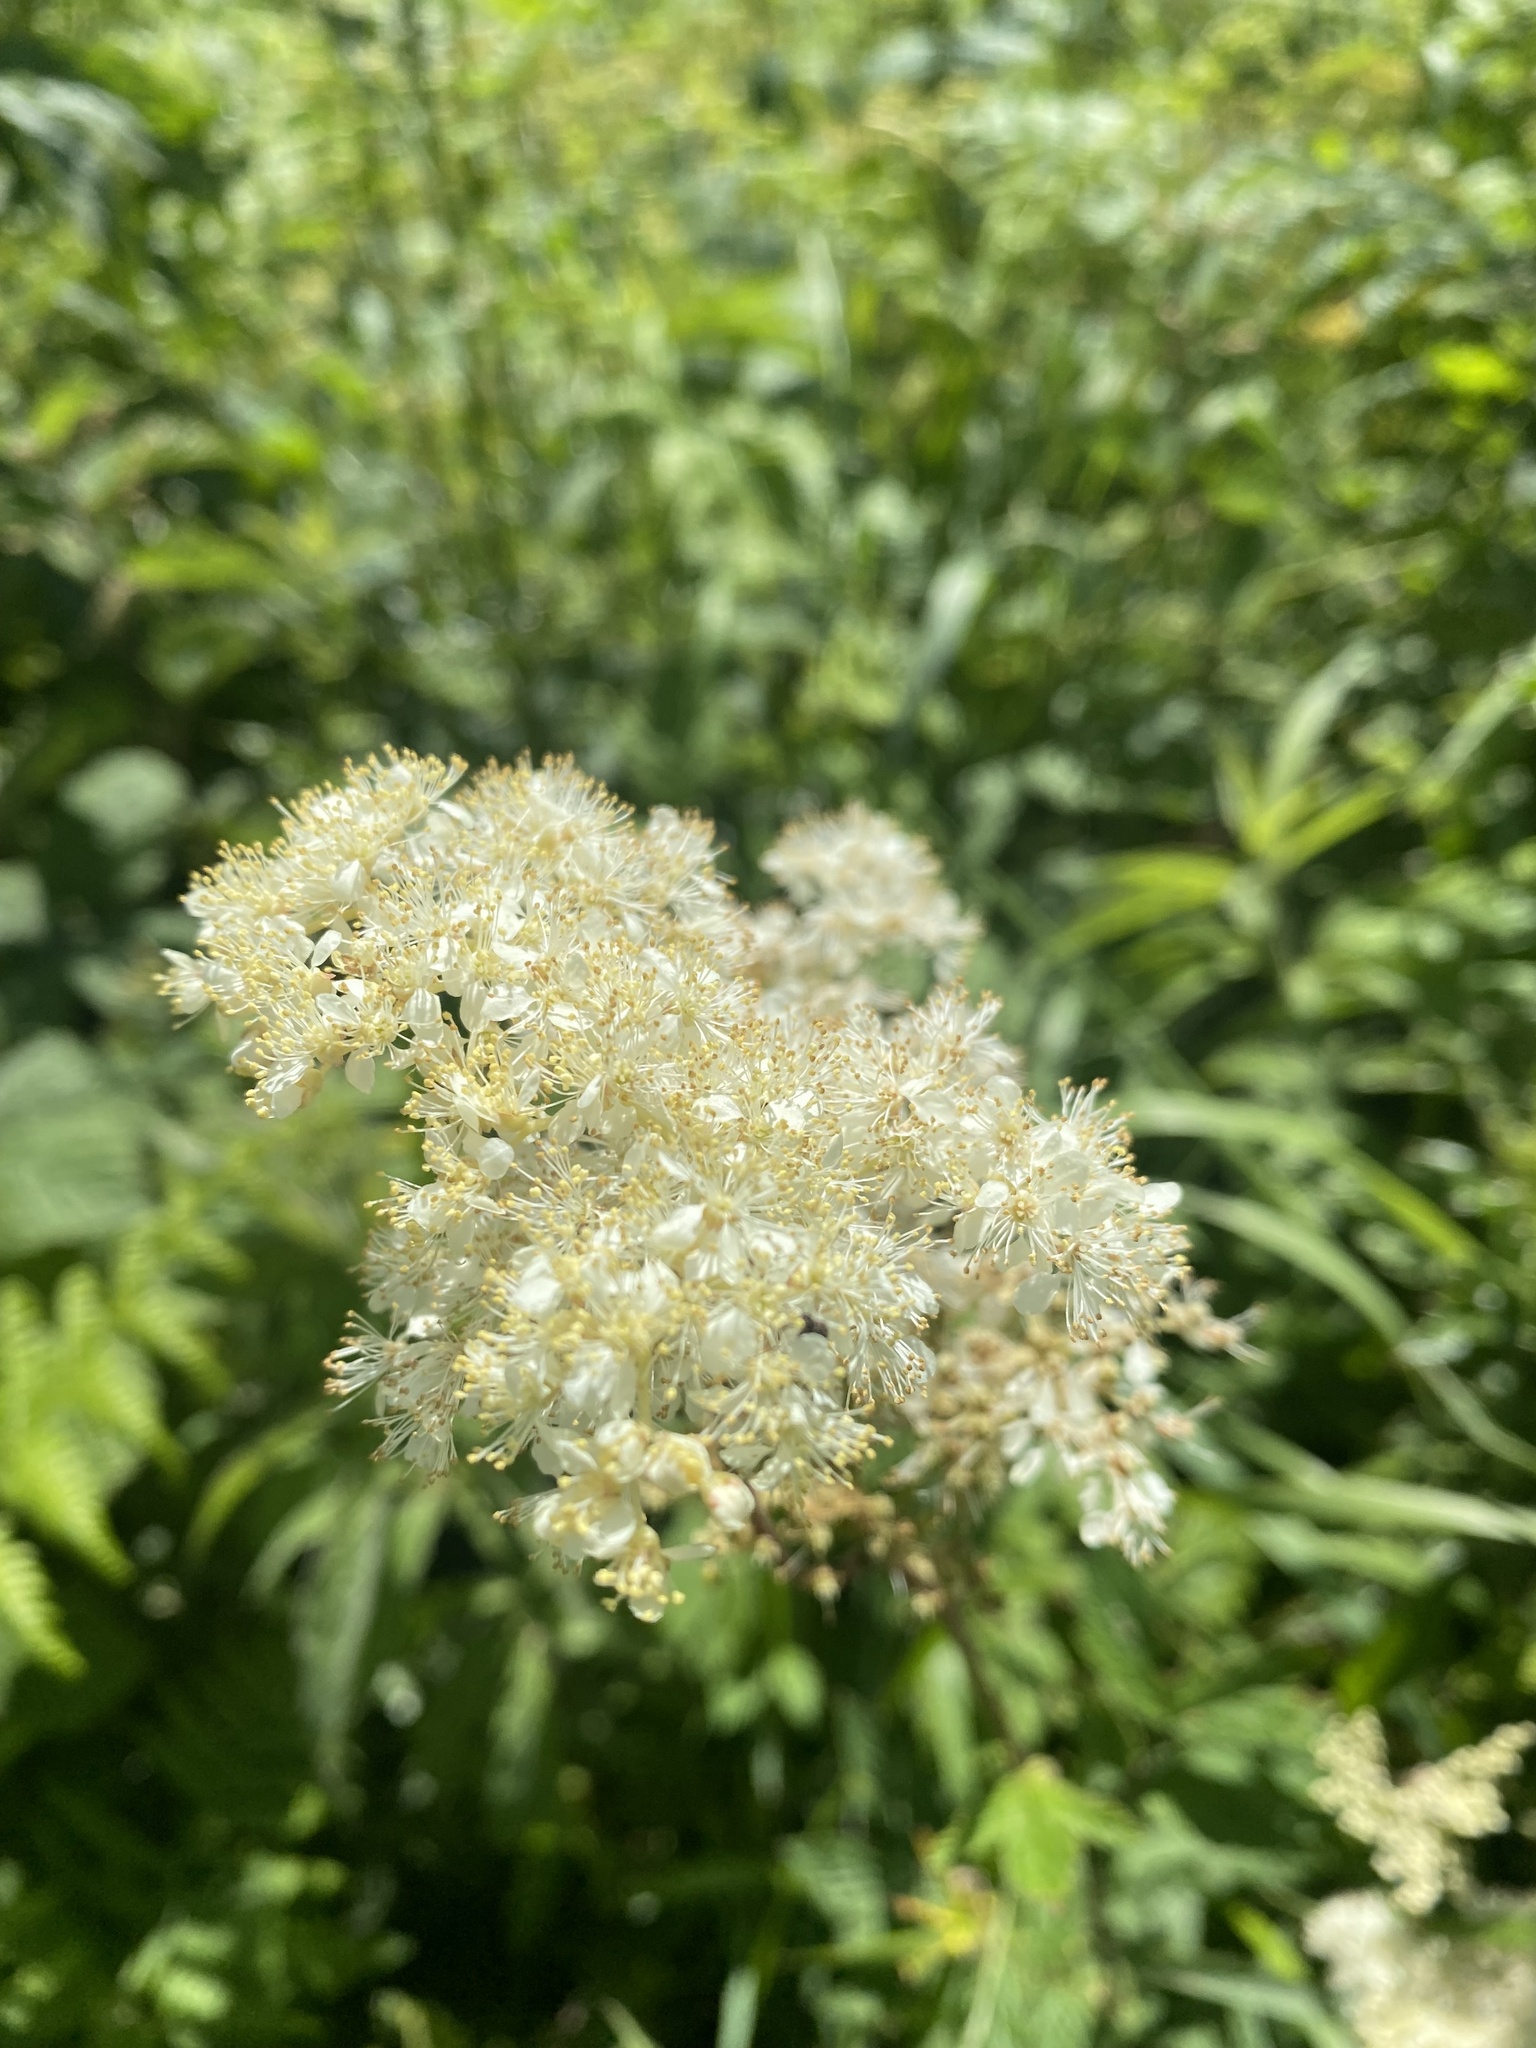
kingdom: Plantae
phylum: Tracheophyta
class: Magnoliopsida
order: Rosales
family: Rosaceae
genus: Filipendula
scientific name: Filipendula ulmaria
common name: Meadowsweet
